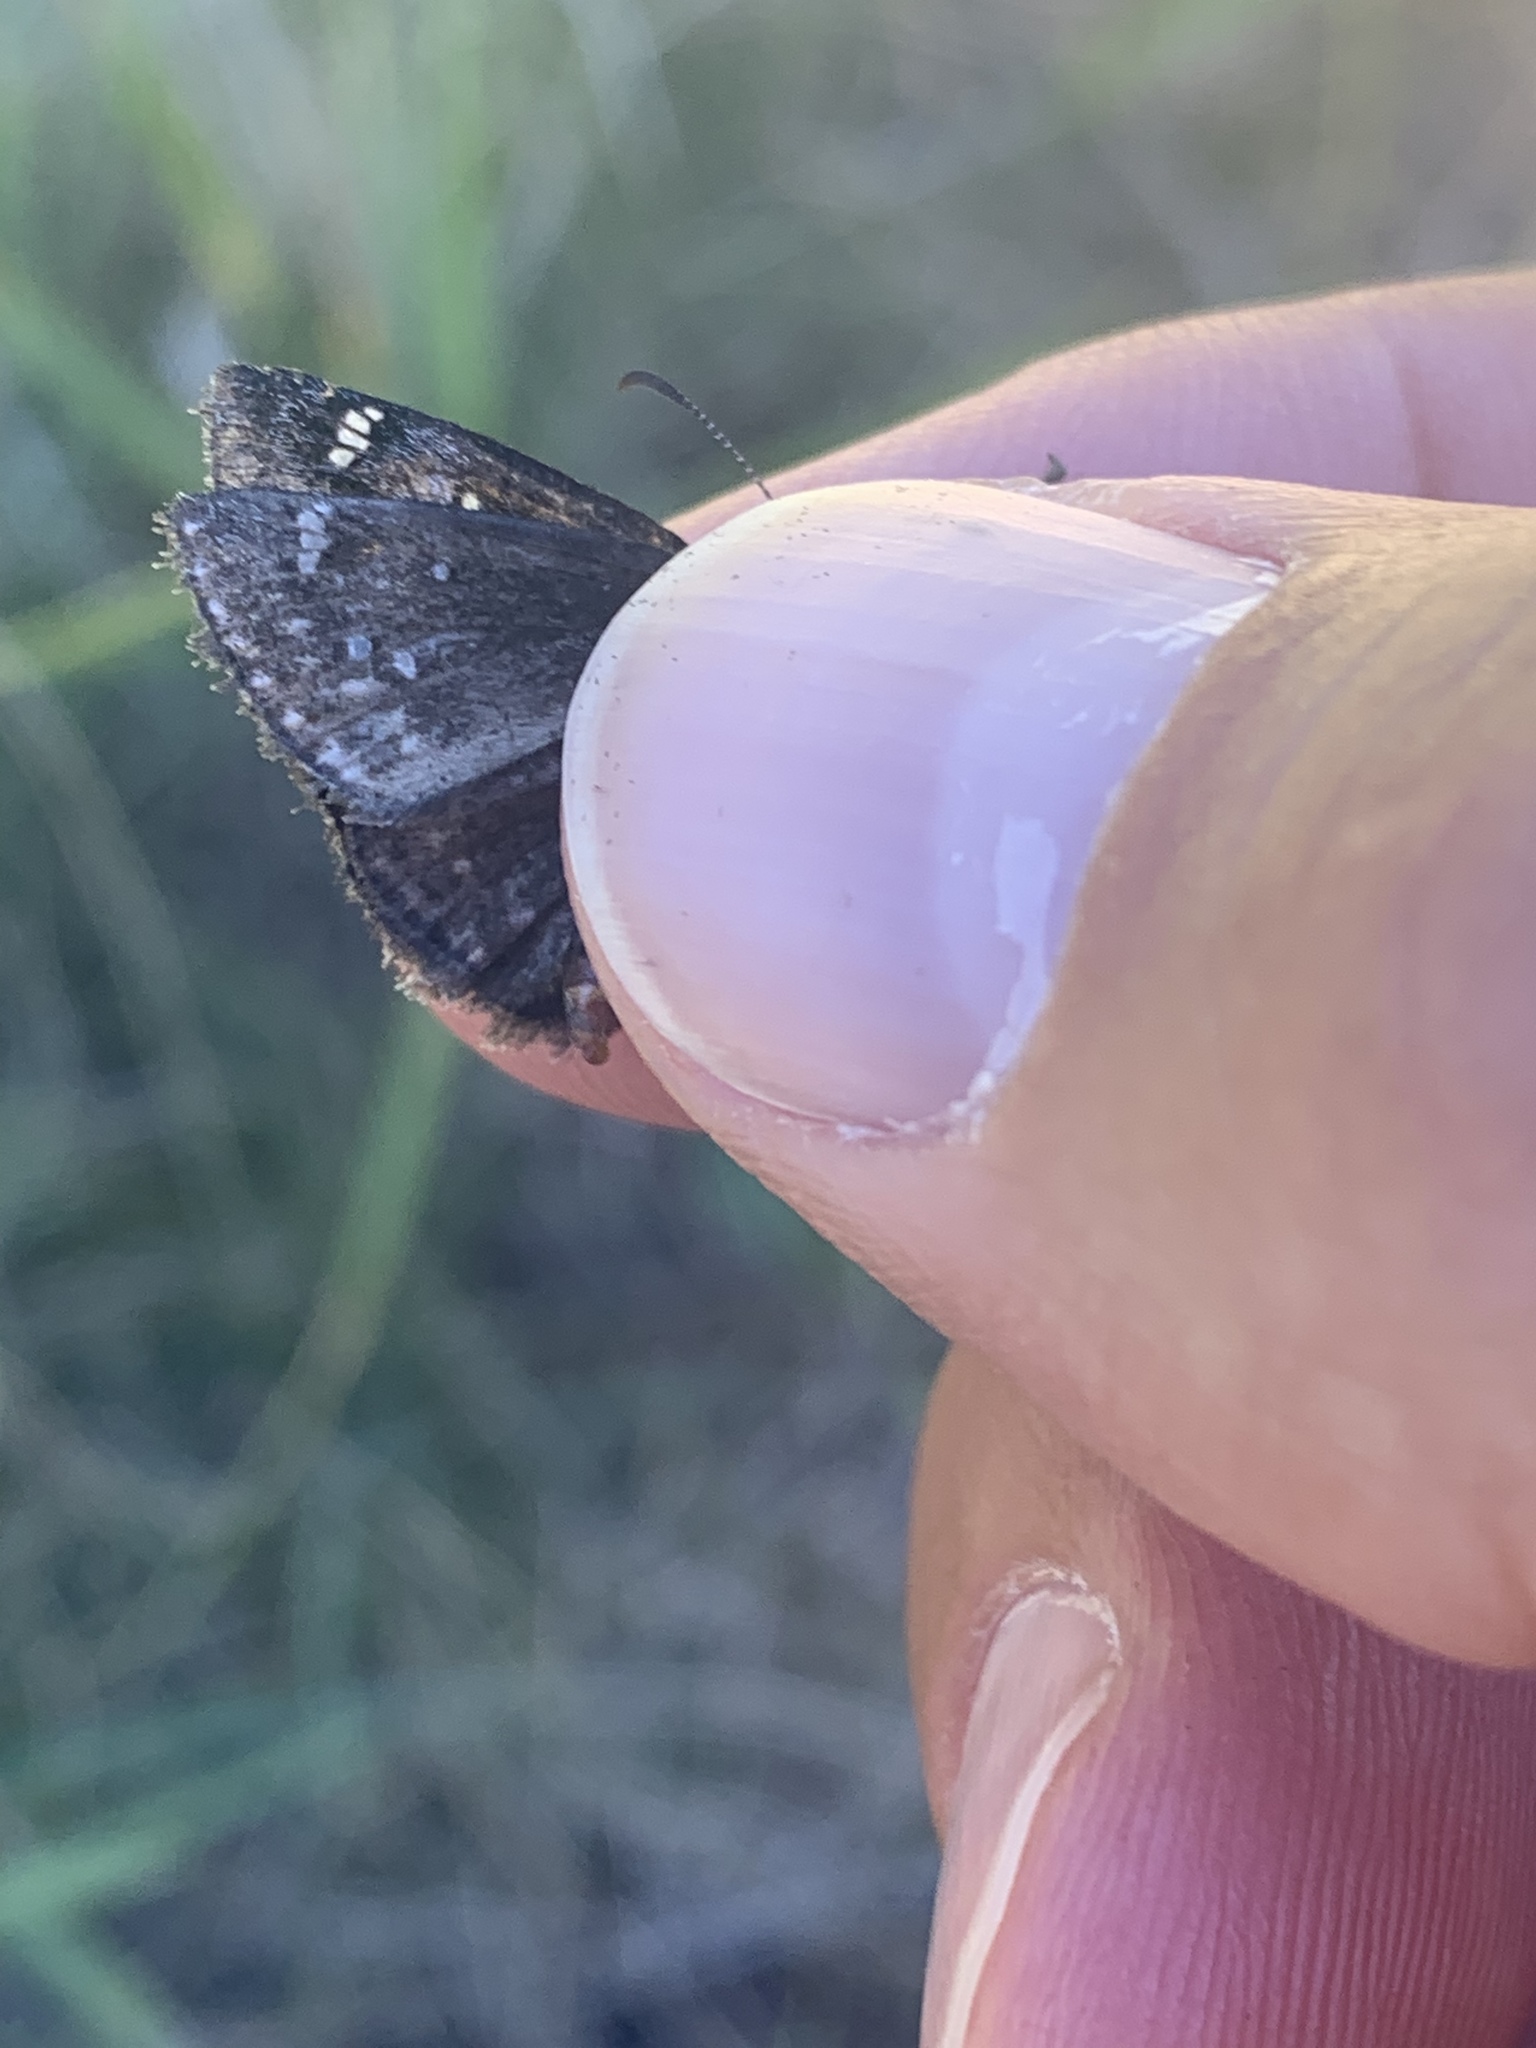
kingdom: Animalia
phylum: Arthropoda
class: Insecta
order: Lepidoptera
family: Hesperiidae
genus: Erynnis
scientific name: Erynnis persius
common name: Persius duskywing
